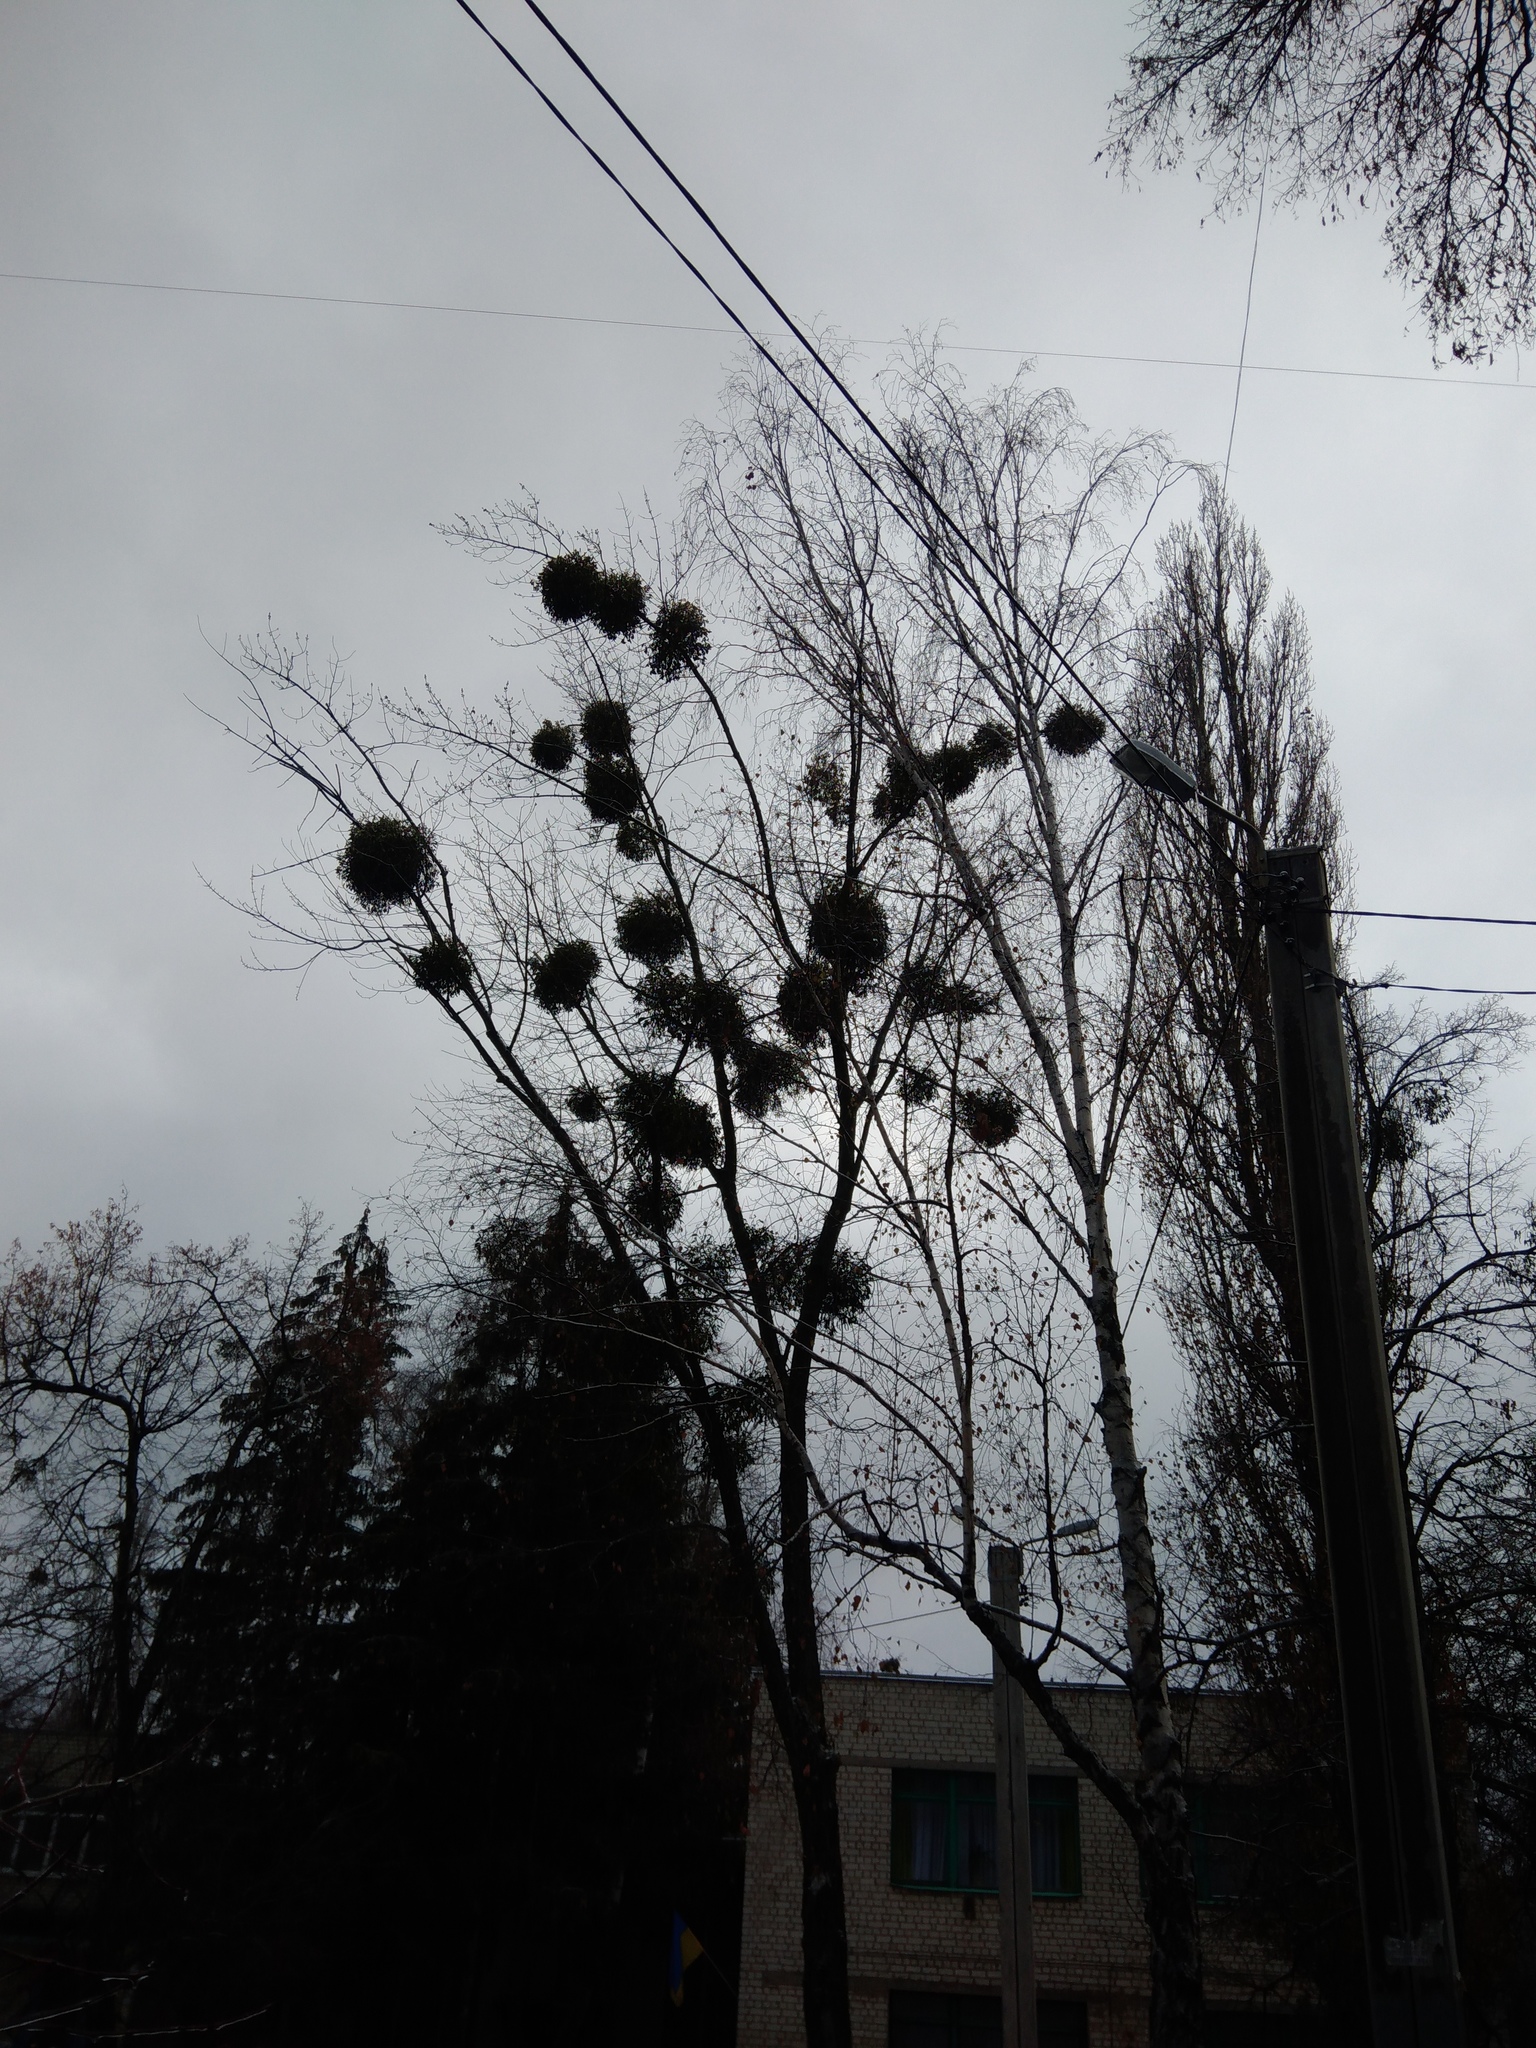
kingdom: Plantae
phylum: Tracheophyta
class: Magnoliopsida
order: Santalales
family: Viscaceae
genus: Viscum
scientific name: Viscum album
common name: Mistletoe
